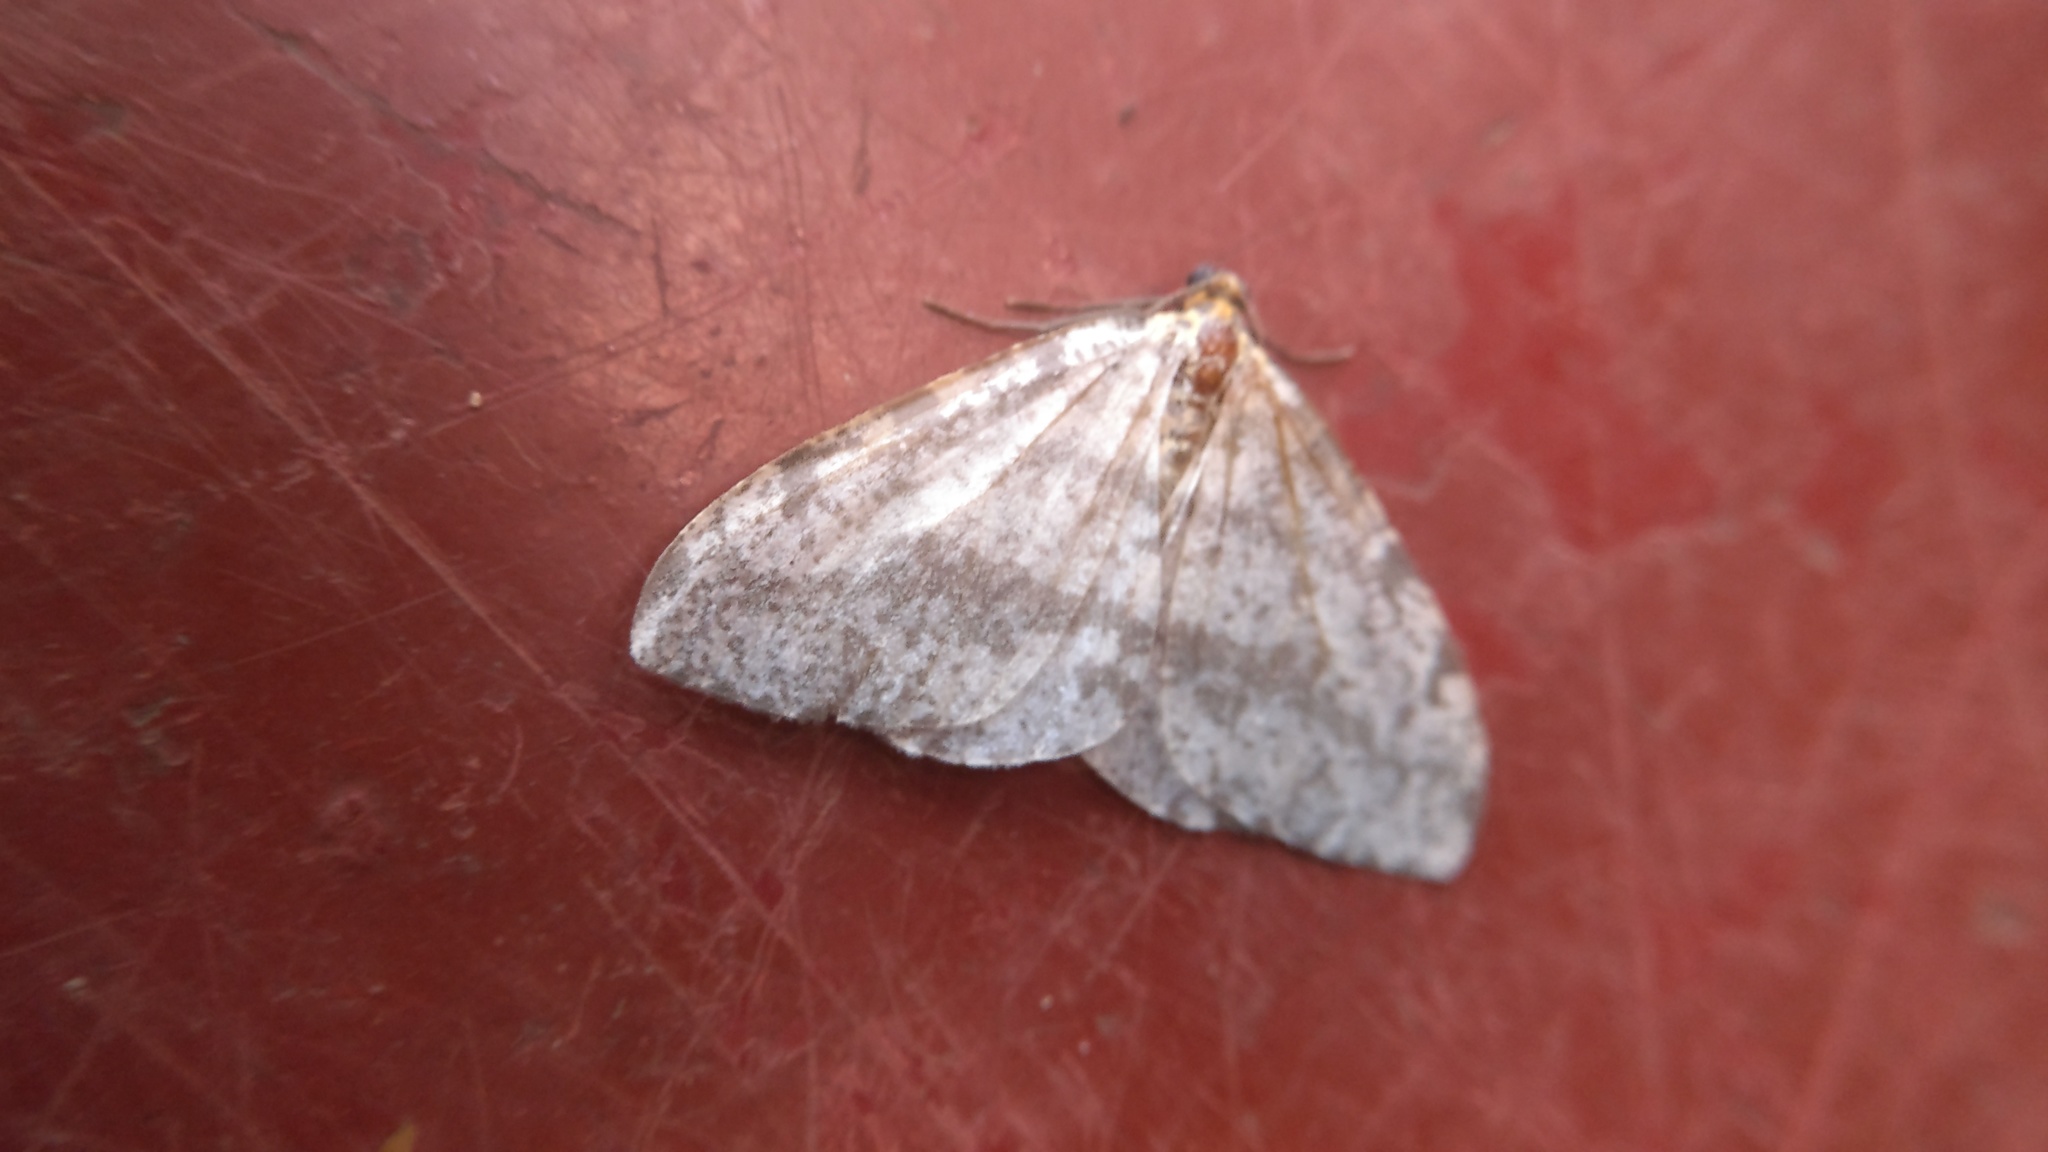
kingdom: Animalia
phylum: Arthropoda
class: Insecta
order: Lepidoptera
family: Geometridae
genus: Abraxas
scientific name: Abraxas fasciaria
